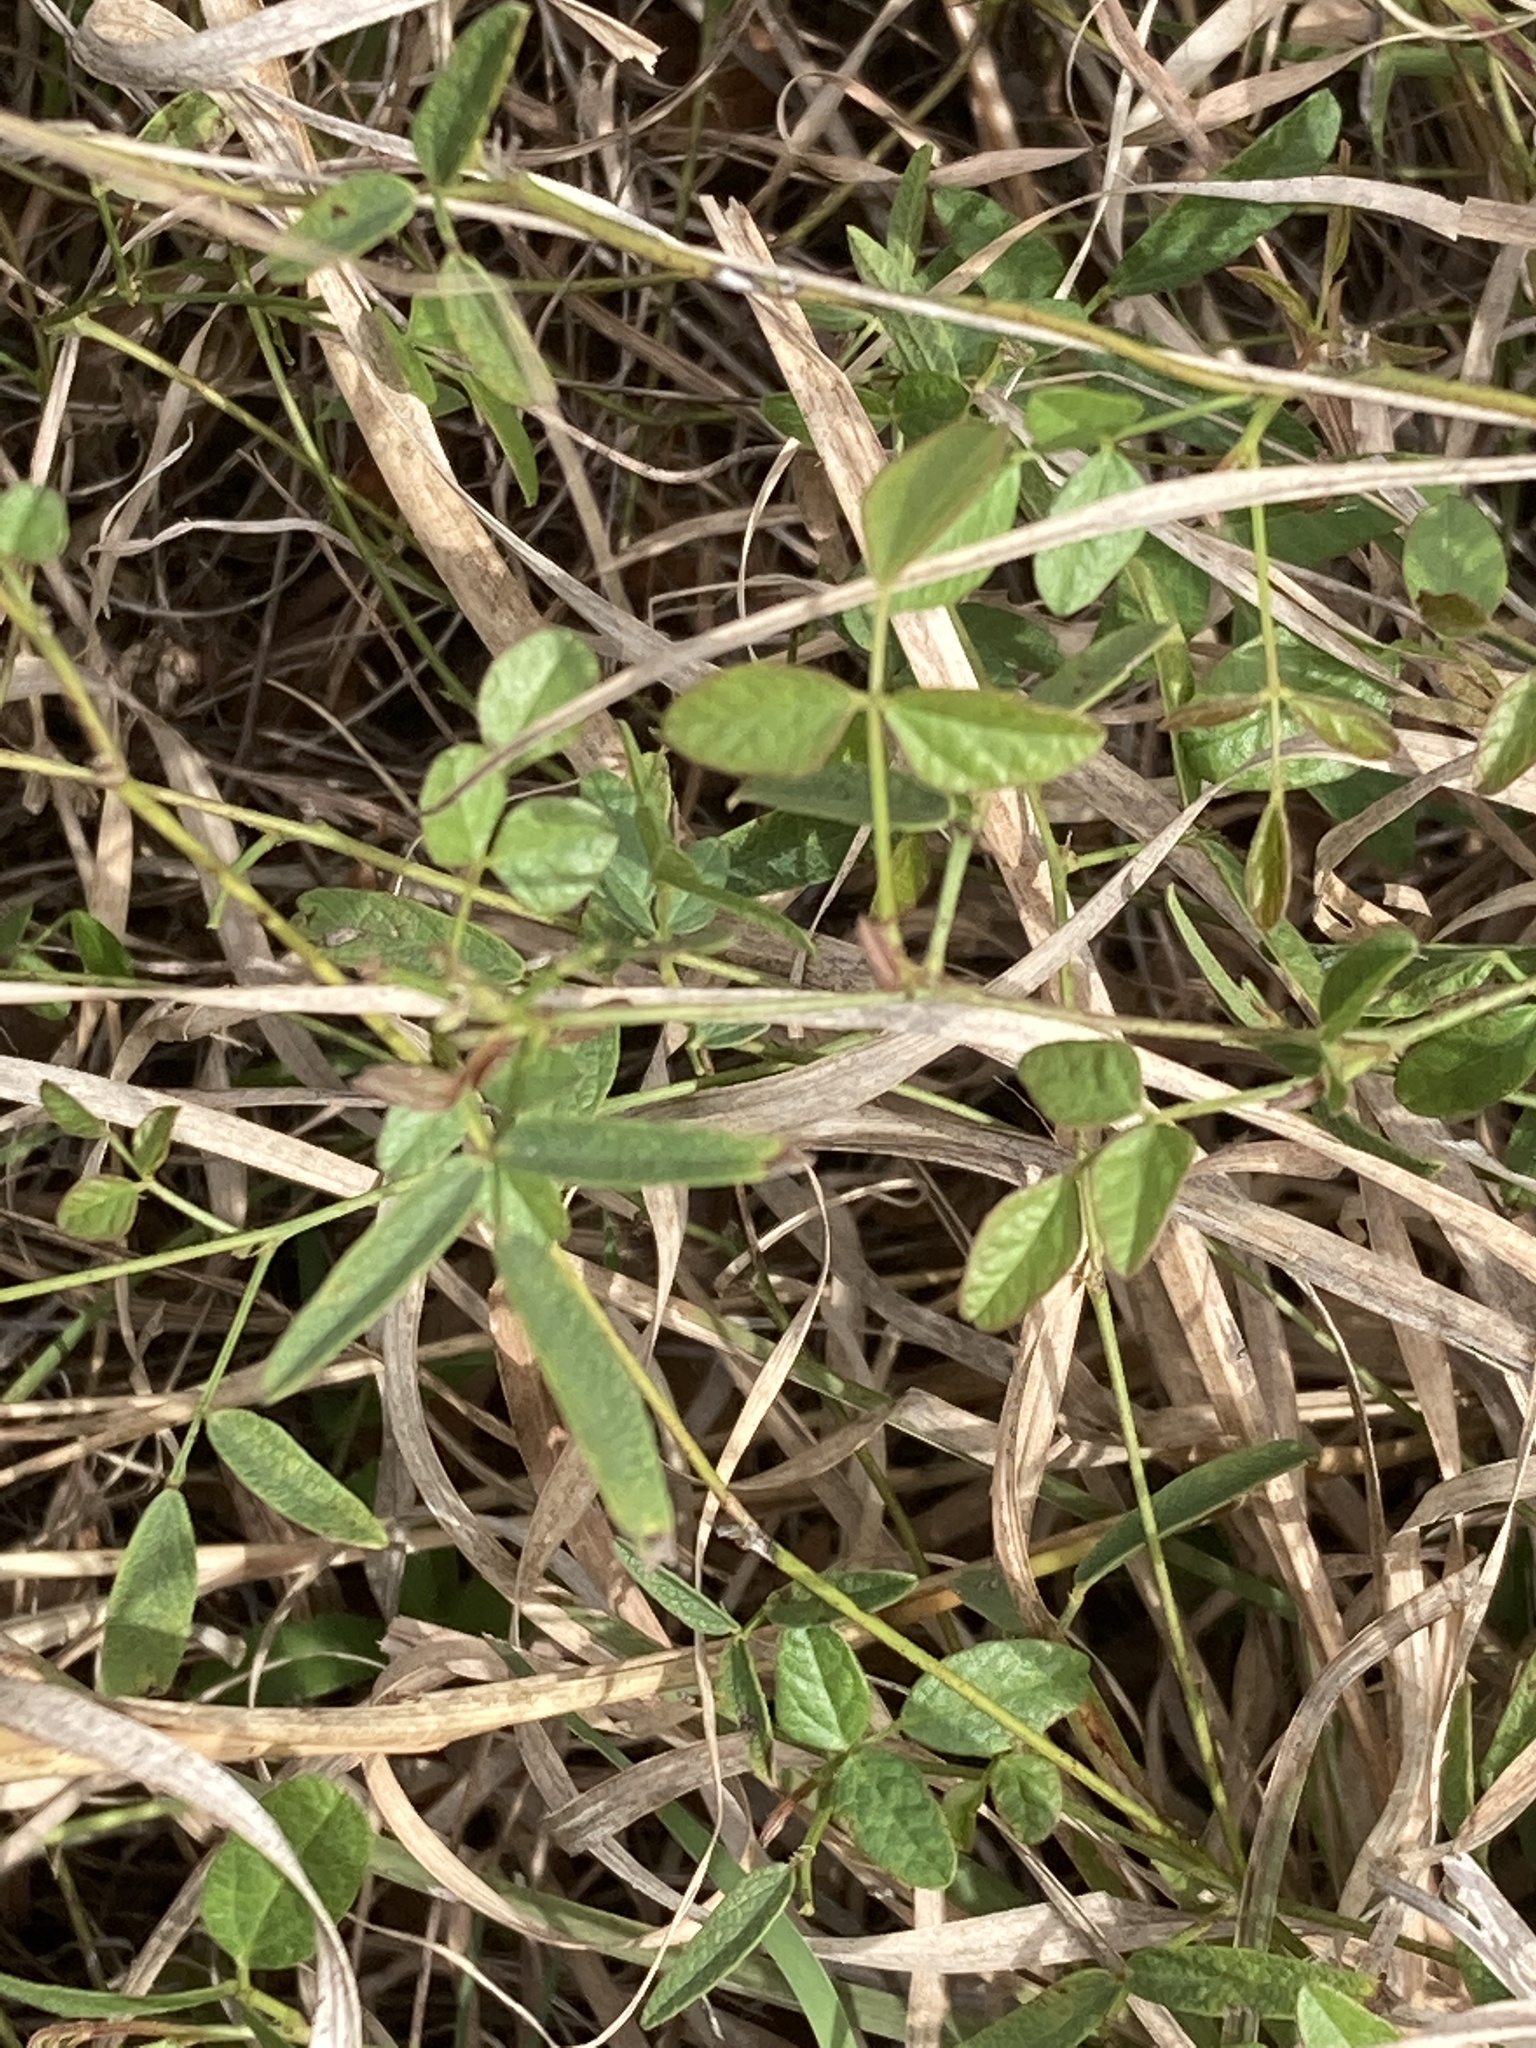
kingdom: Plantae
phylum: Tracheophyta
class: Magnoliopsida
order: Fabales
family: Fabaceae
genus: Rhynchosia
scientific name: Rhynchosia senna
